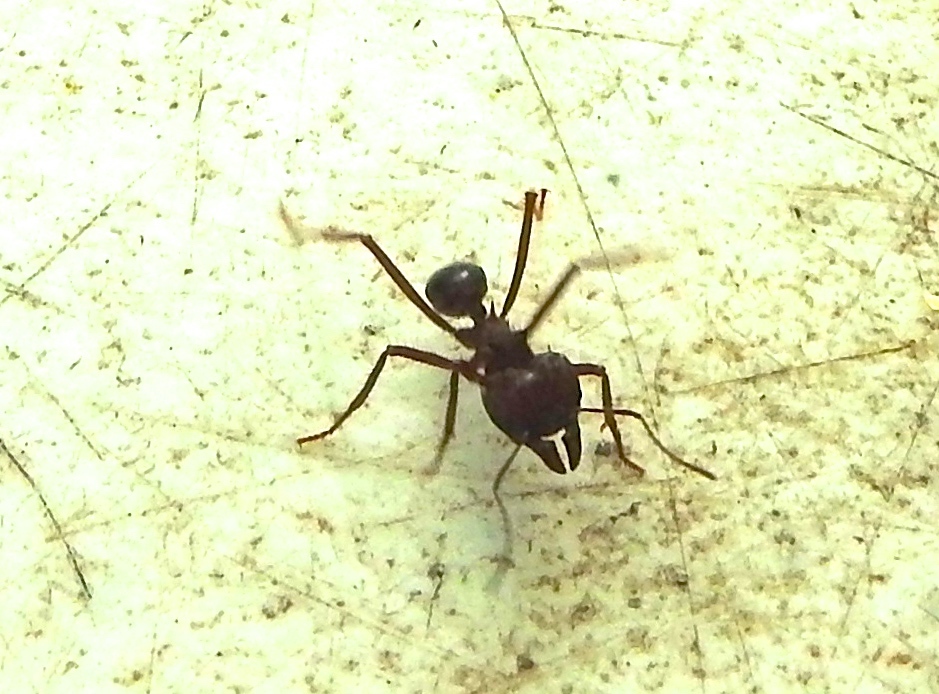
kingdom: Animalia
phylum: Arthropoda
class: Insecta
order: Hymenoptera
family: Formicidae
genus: Atta
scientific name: Atta mexicana
